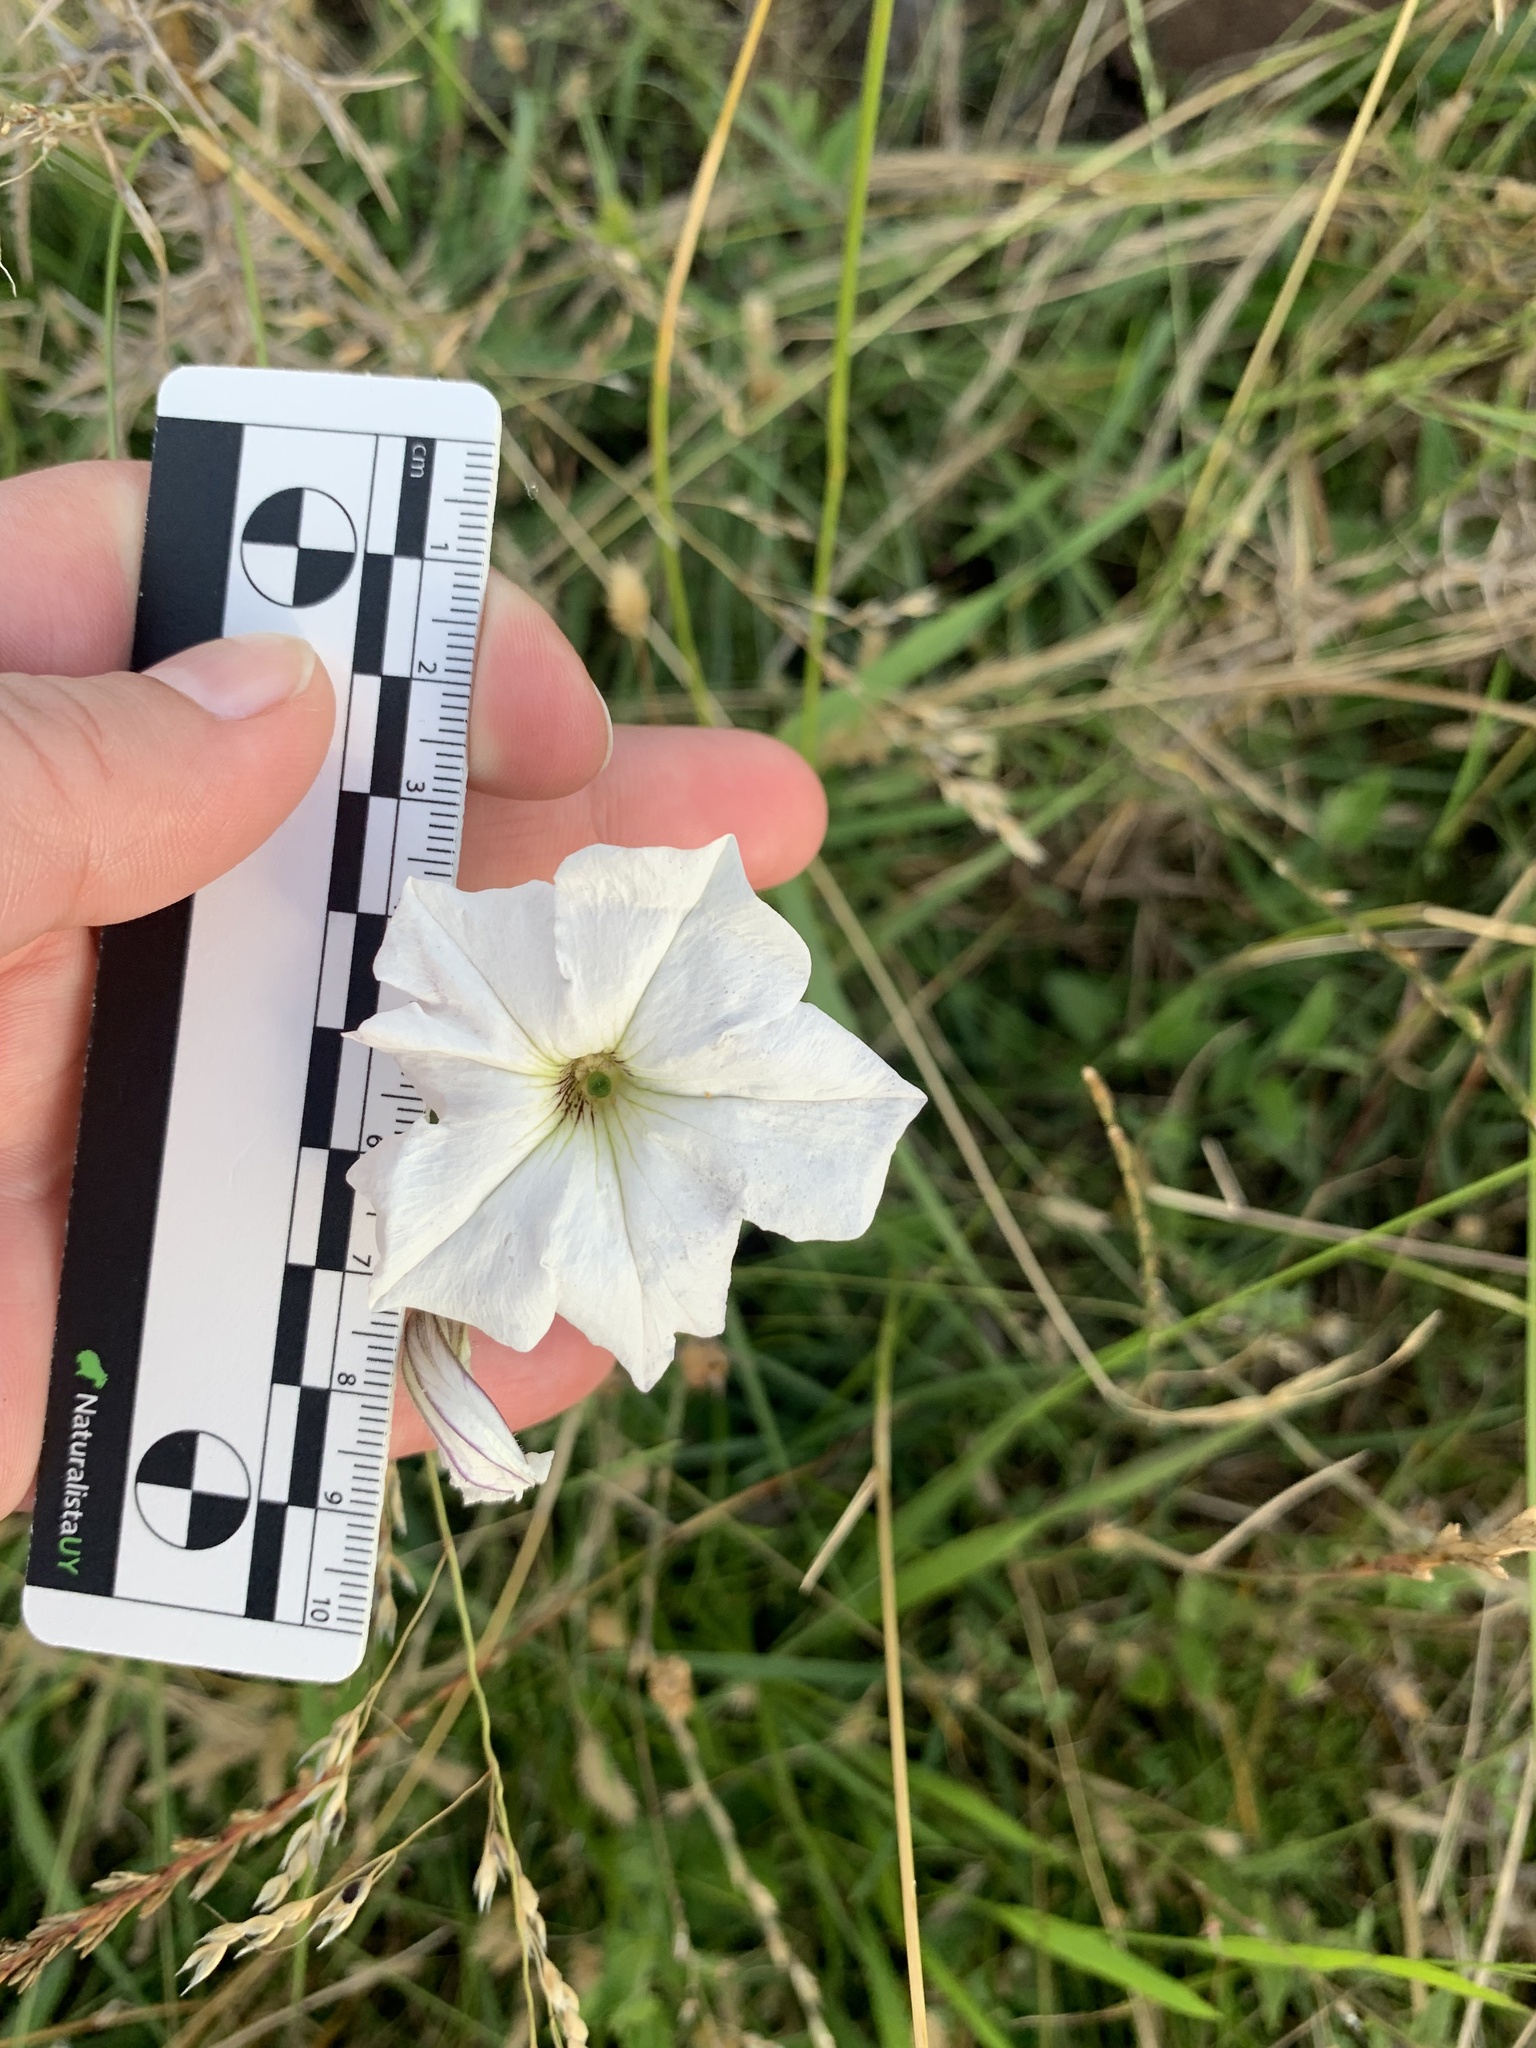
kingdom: Plantae
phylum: Tracheophyta
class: Magnoliopsida
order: Solanales
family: Solanaceae
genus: Petunia
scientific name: Petunia axillaris
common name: Large white petunia
